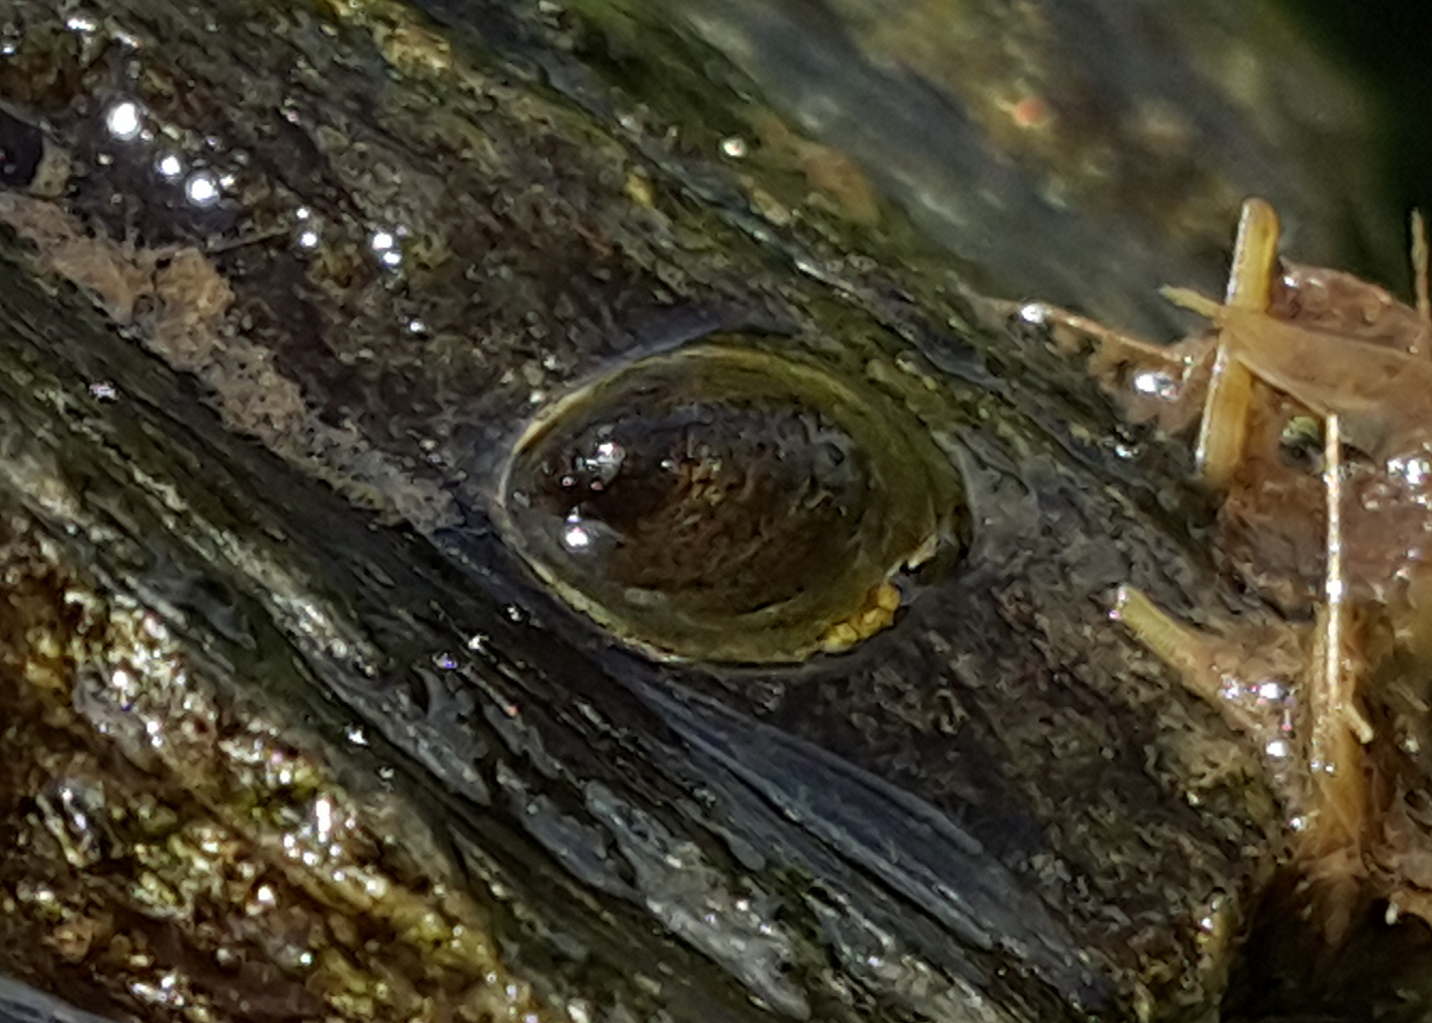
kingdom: Animalia
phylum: Mollusca
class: Gastropoda
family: Planorbidae
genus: Ancylus
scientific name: Ancylus fluviatilis
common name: River limpet
